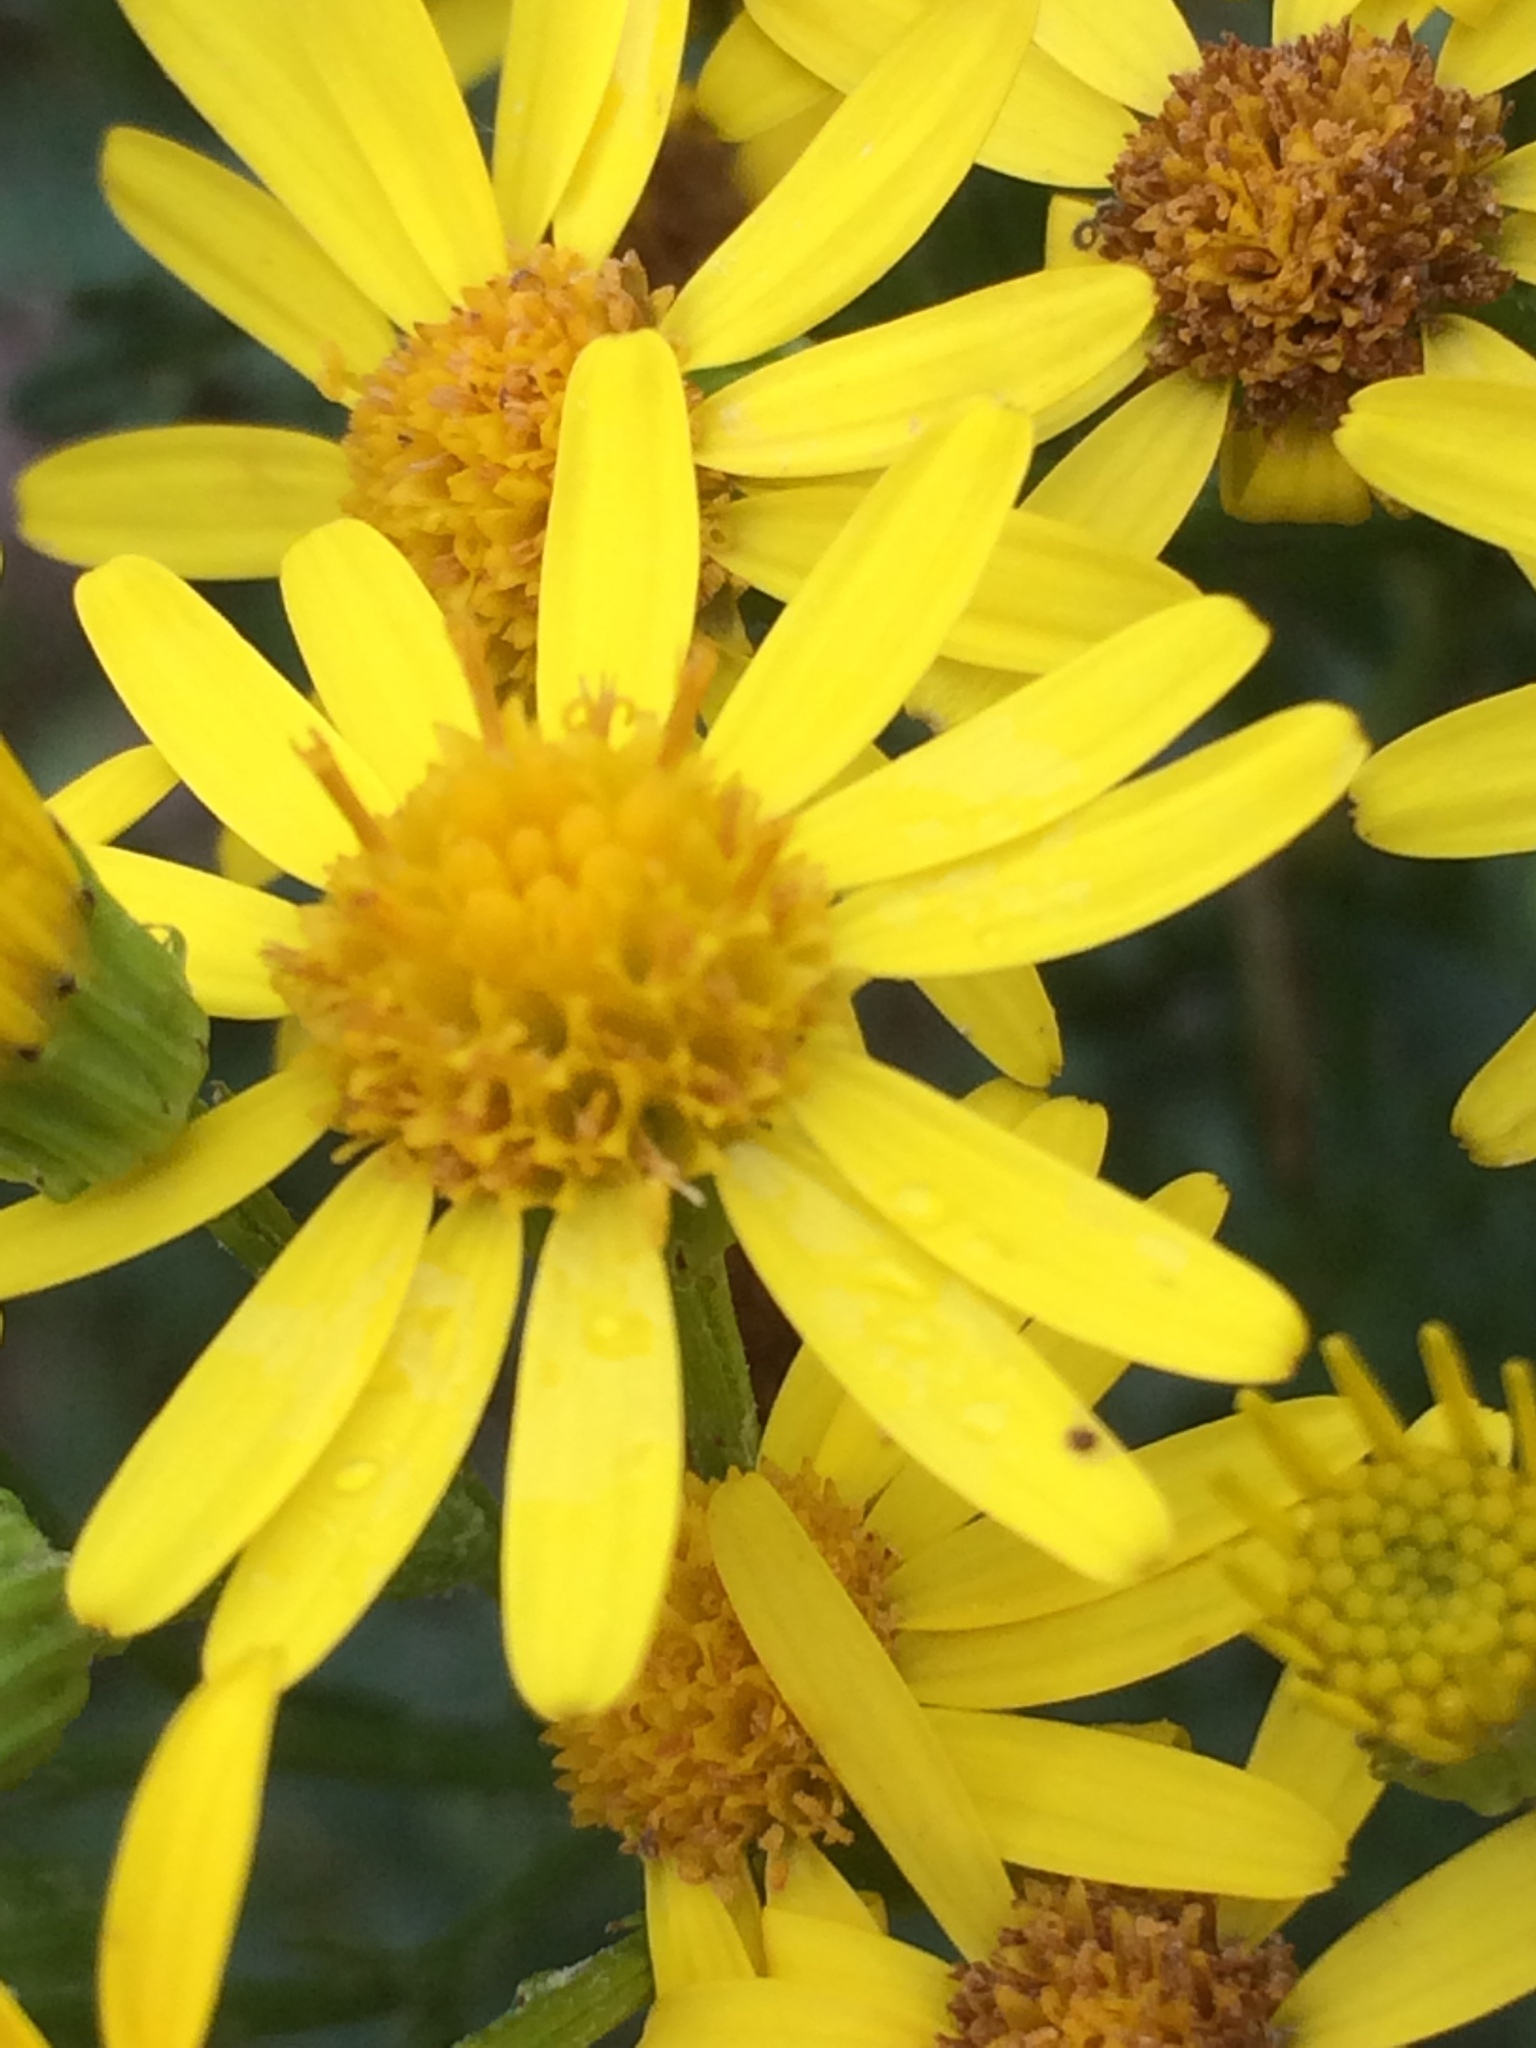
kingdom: Plantae
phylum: Tracheophyta
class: Magnoliopsida
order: Asterales
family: Asteraceae
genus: Jacobaea
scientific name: Jacobaea vulgaris
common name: Stinking willie
